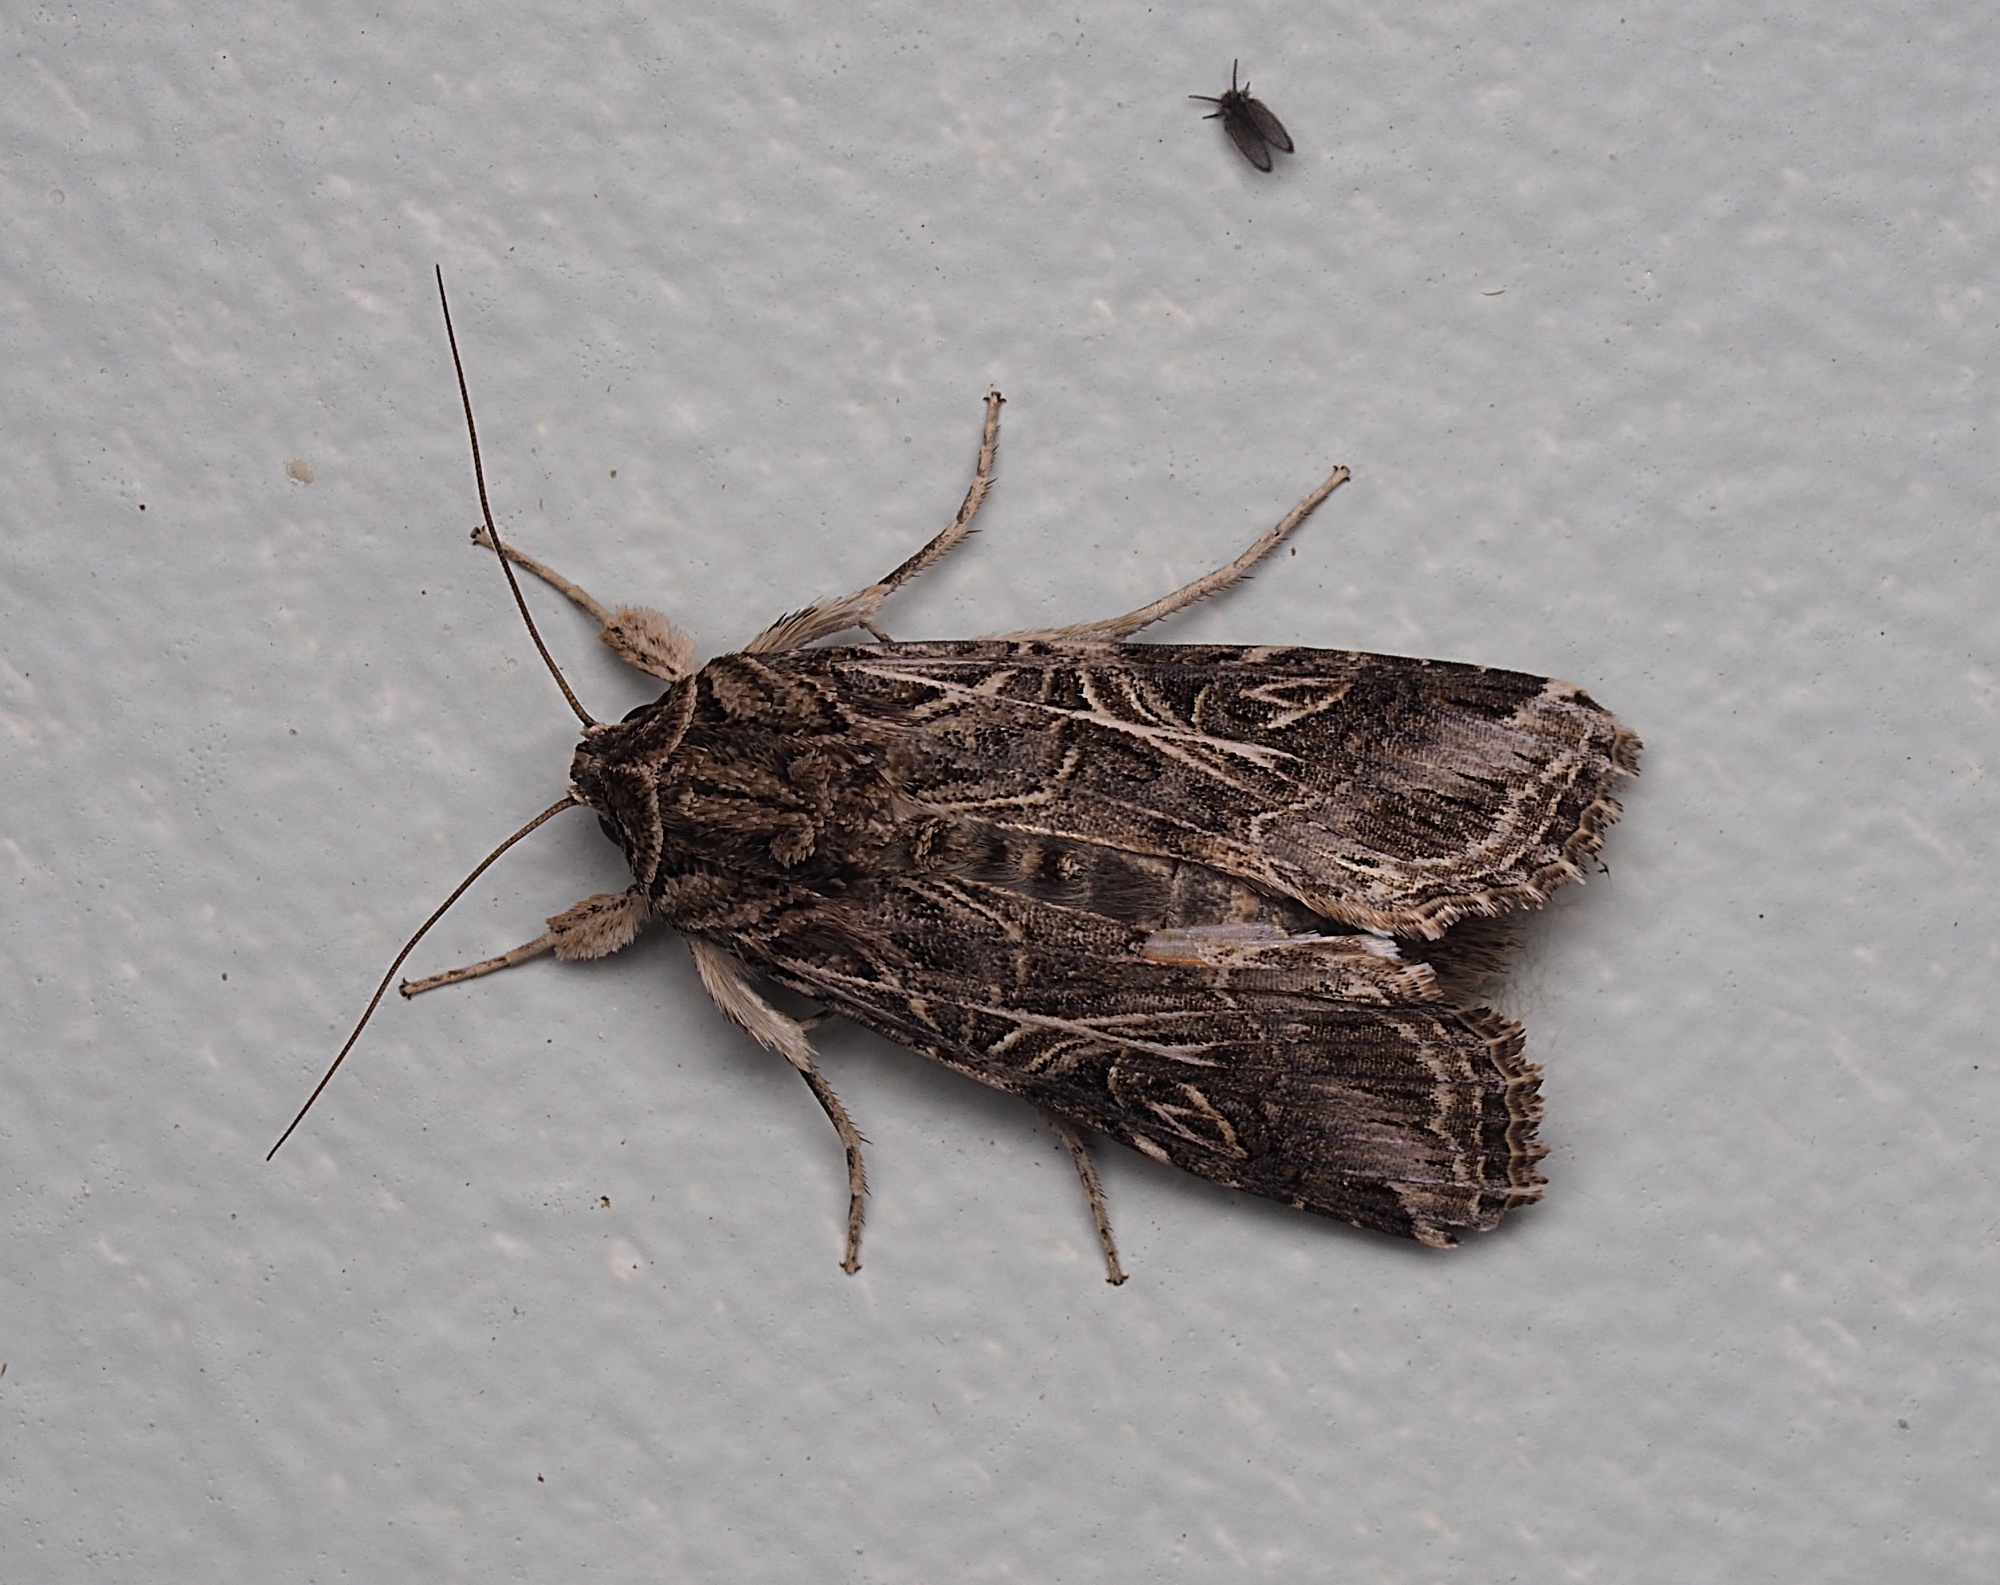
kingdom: Animalia
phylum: Arthropoda
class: Insecta
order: Lepidoptera
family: Noctuidae
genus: Spodoptera
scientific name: Spodoptera litura
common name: Asian cotton leafworm
